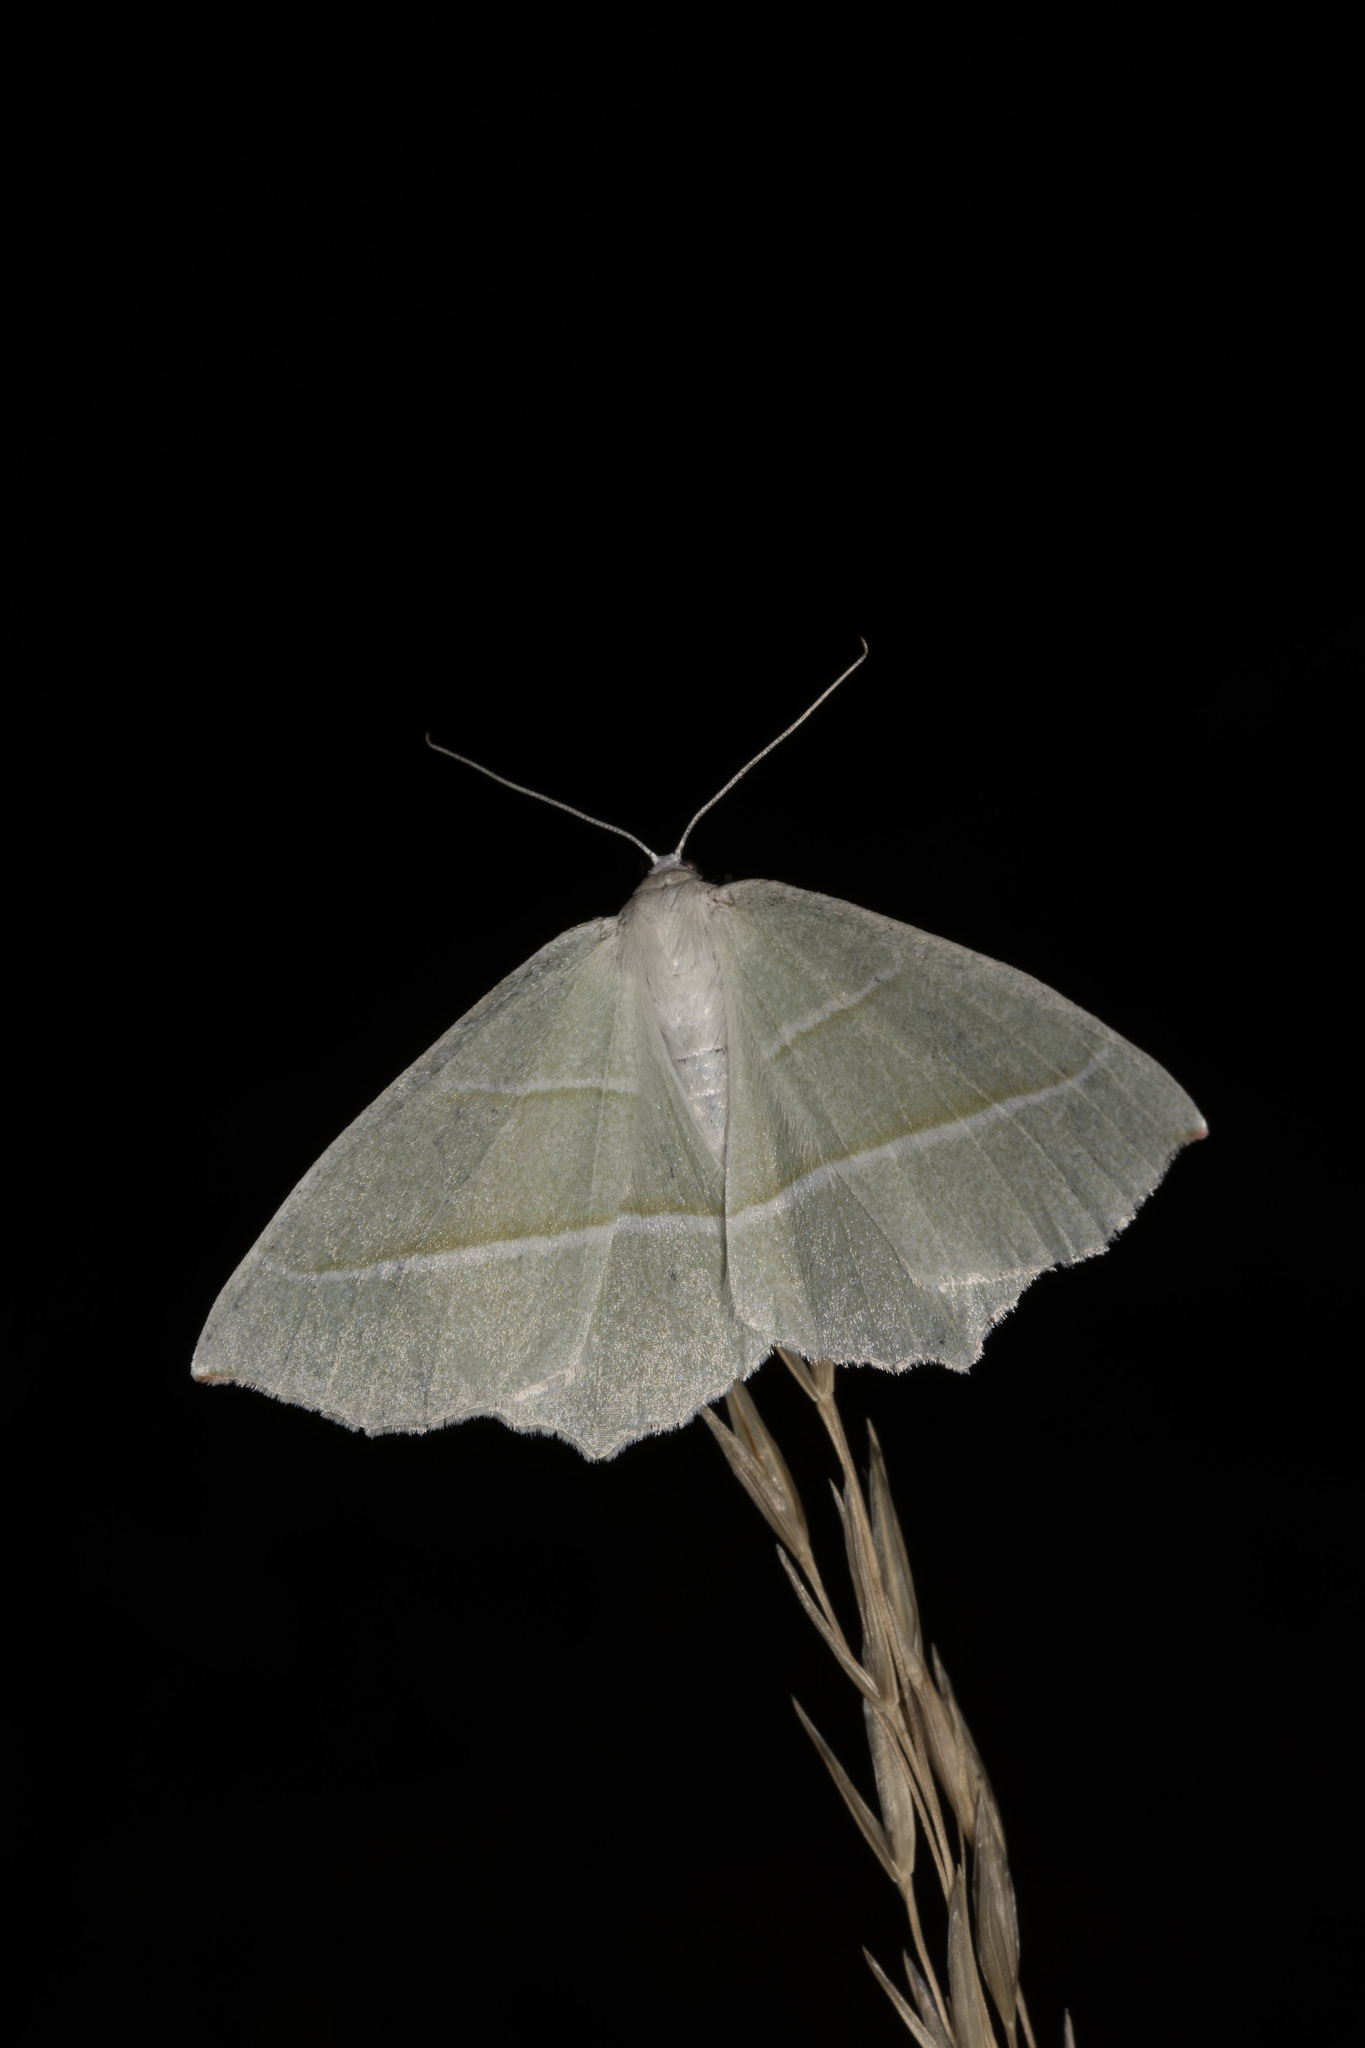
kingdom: Animalia
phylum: Arthropoda
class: Insecta
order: Lepidoptera
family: Geometridae
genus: Campaea
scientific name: Campaea margaritaria
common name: Light emerald
